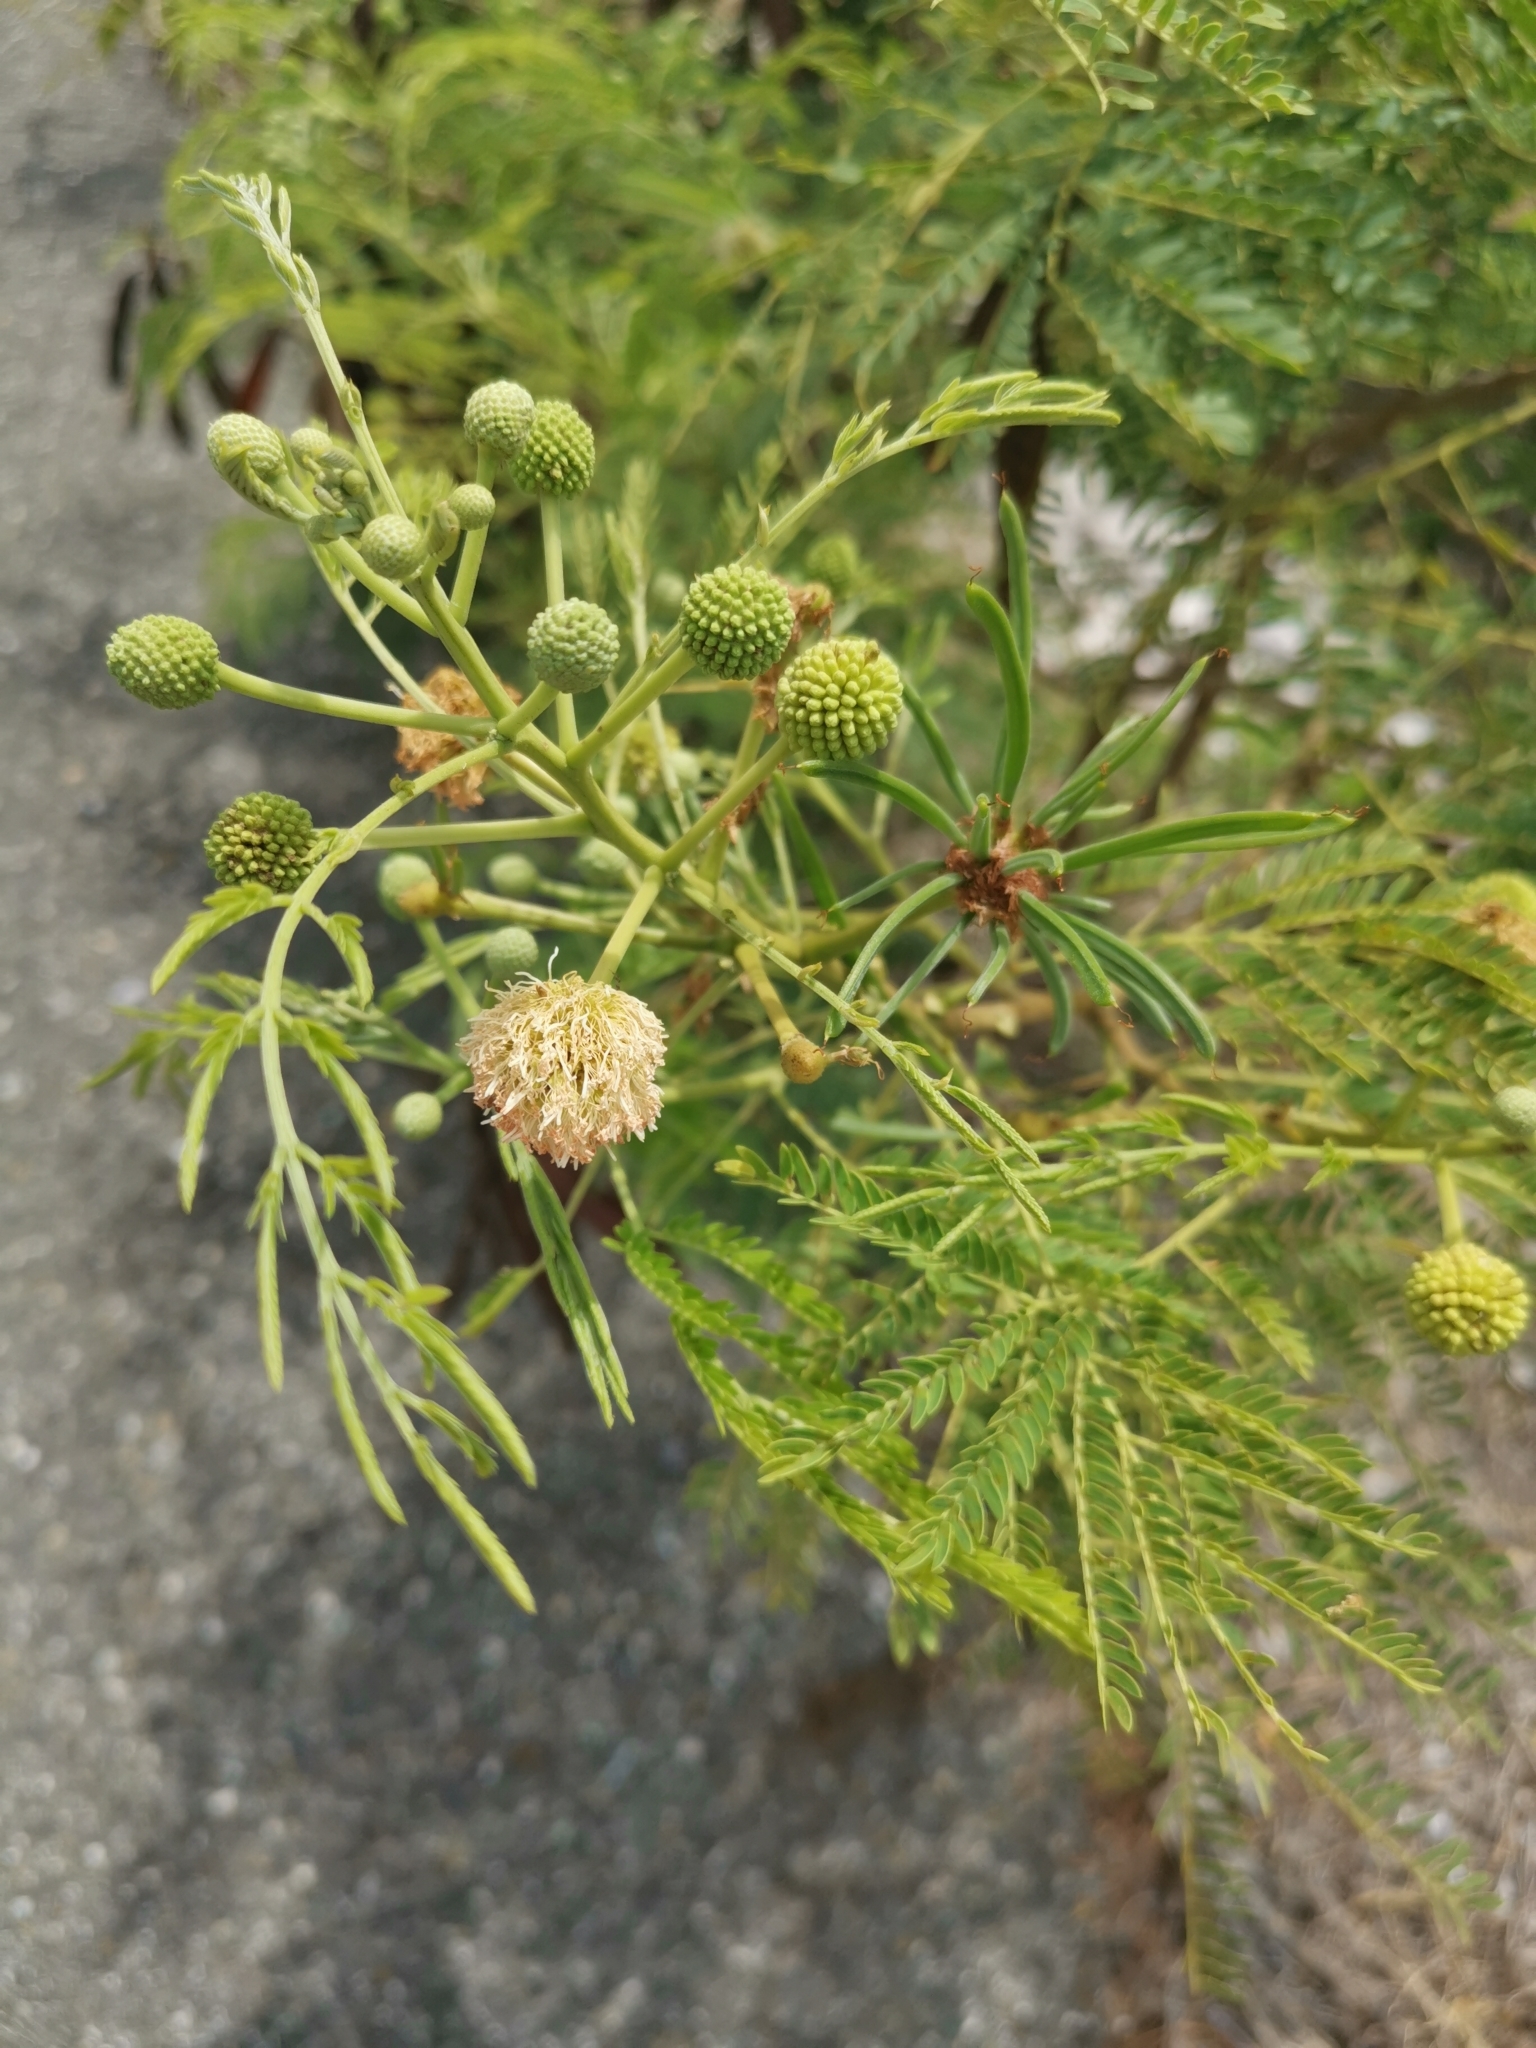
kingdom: Plantae
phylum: Tracheophyta
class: Magnoliopsida
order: Fabales
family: Fabaceae
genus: Leucaena
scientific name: Leucaena leucocephala
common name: White leadtree
